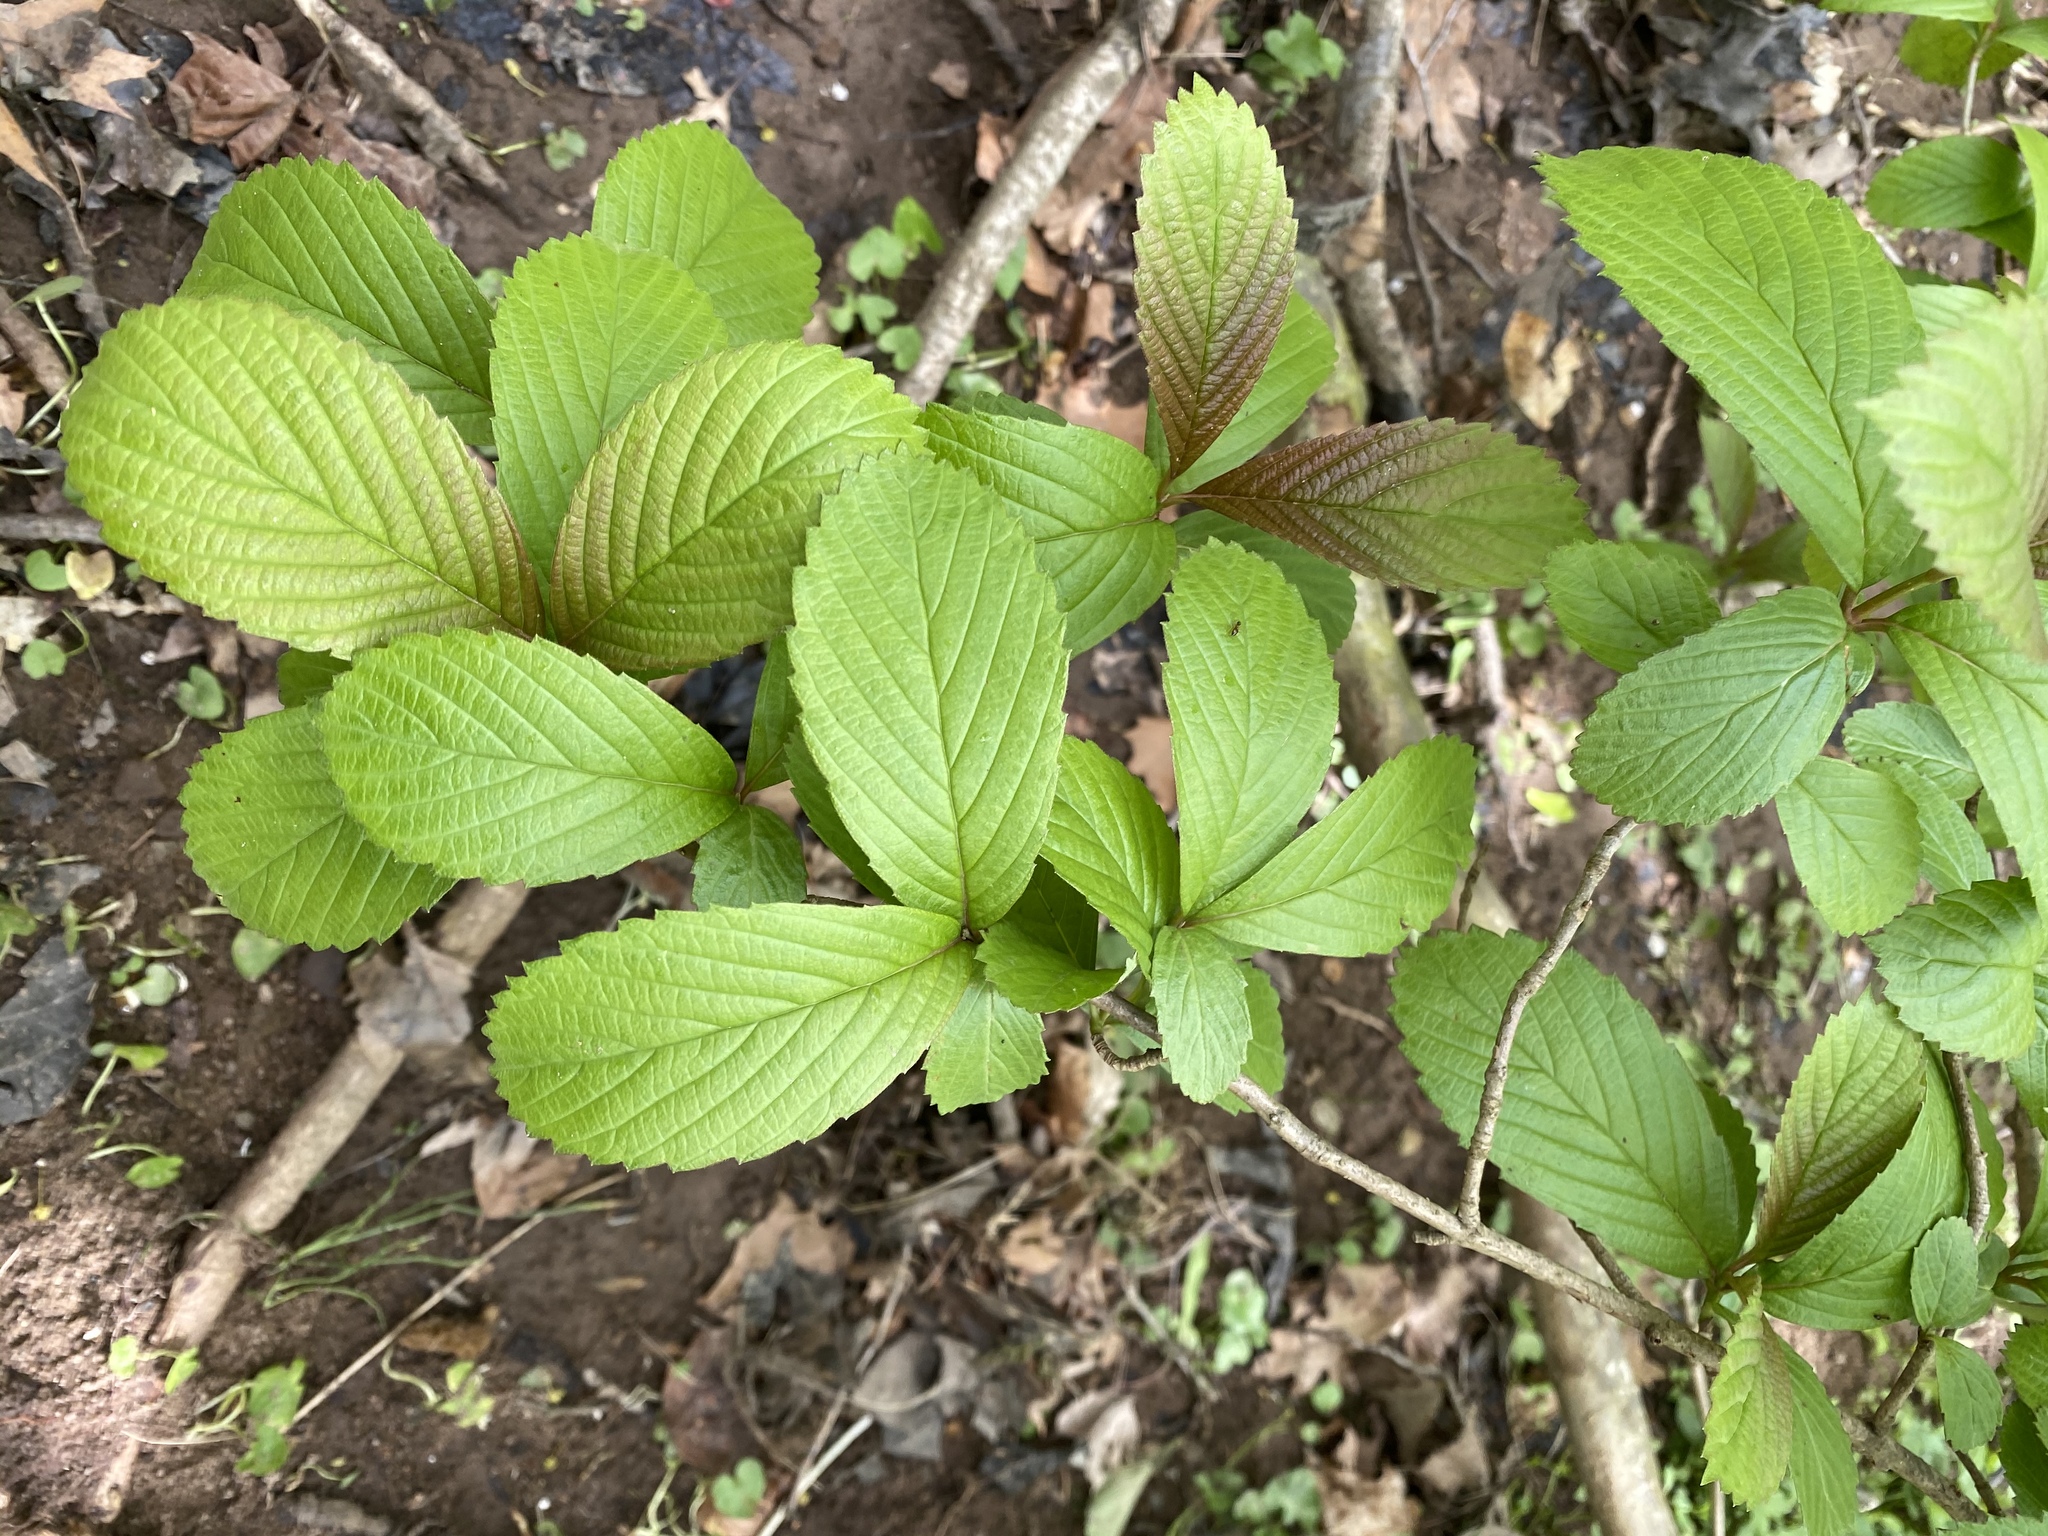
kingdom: Plantae
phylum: Tracheophyta
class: Magnoliopsida
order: Dipsacales
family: Viburnaceae
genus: Viburnum
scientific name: Viburnum sieboldii
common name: Siebold's arrowwood
